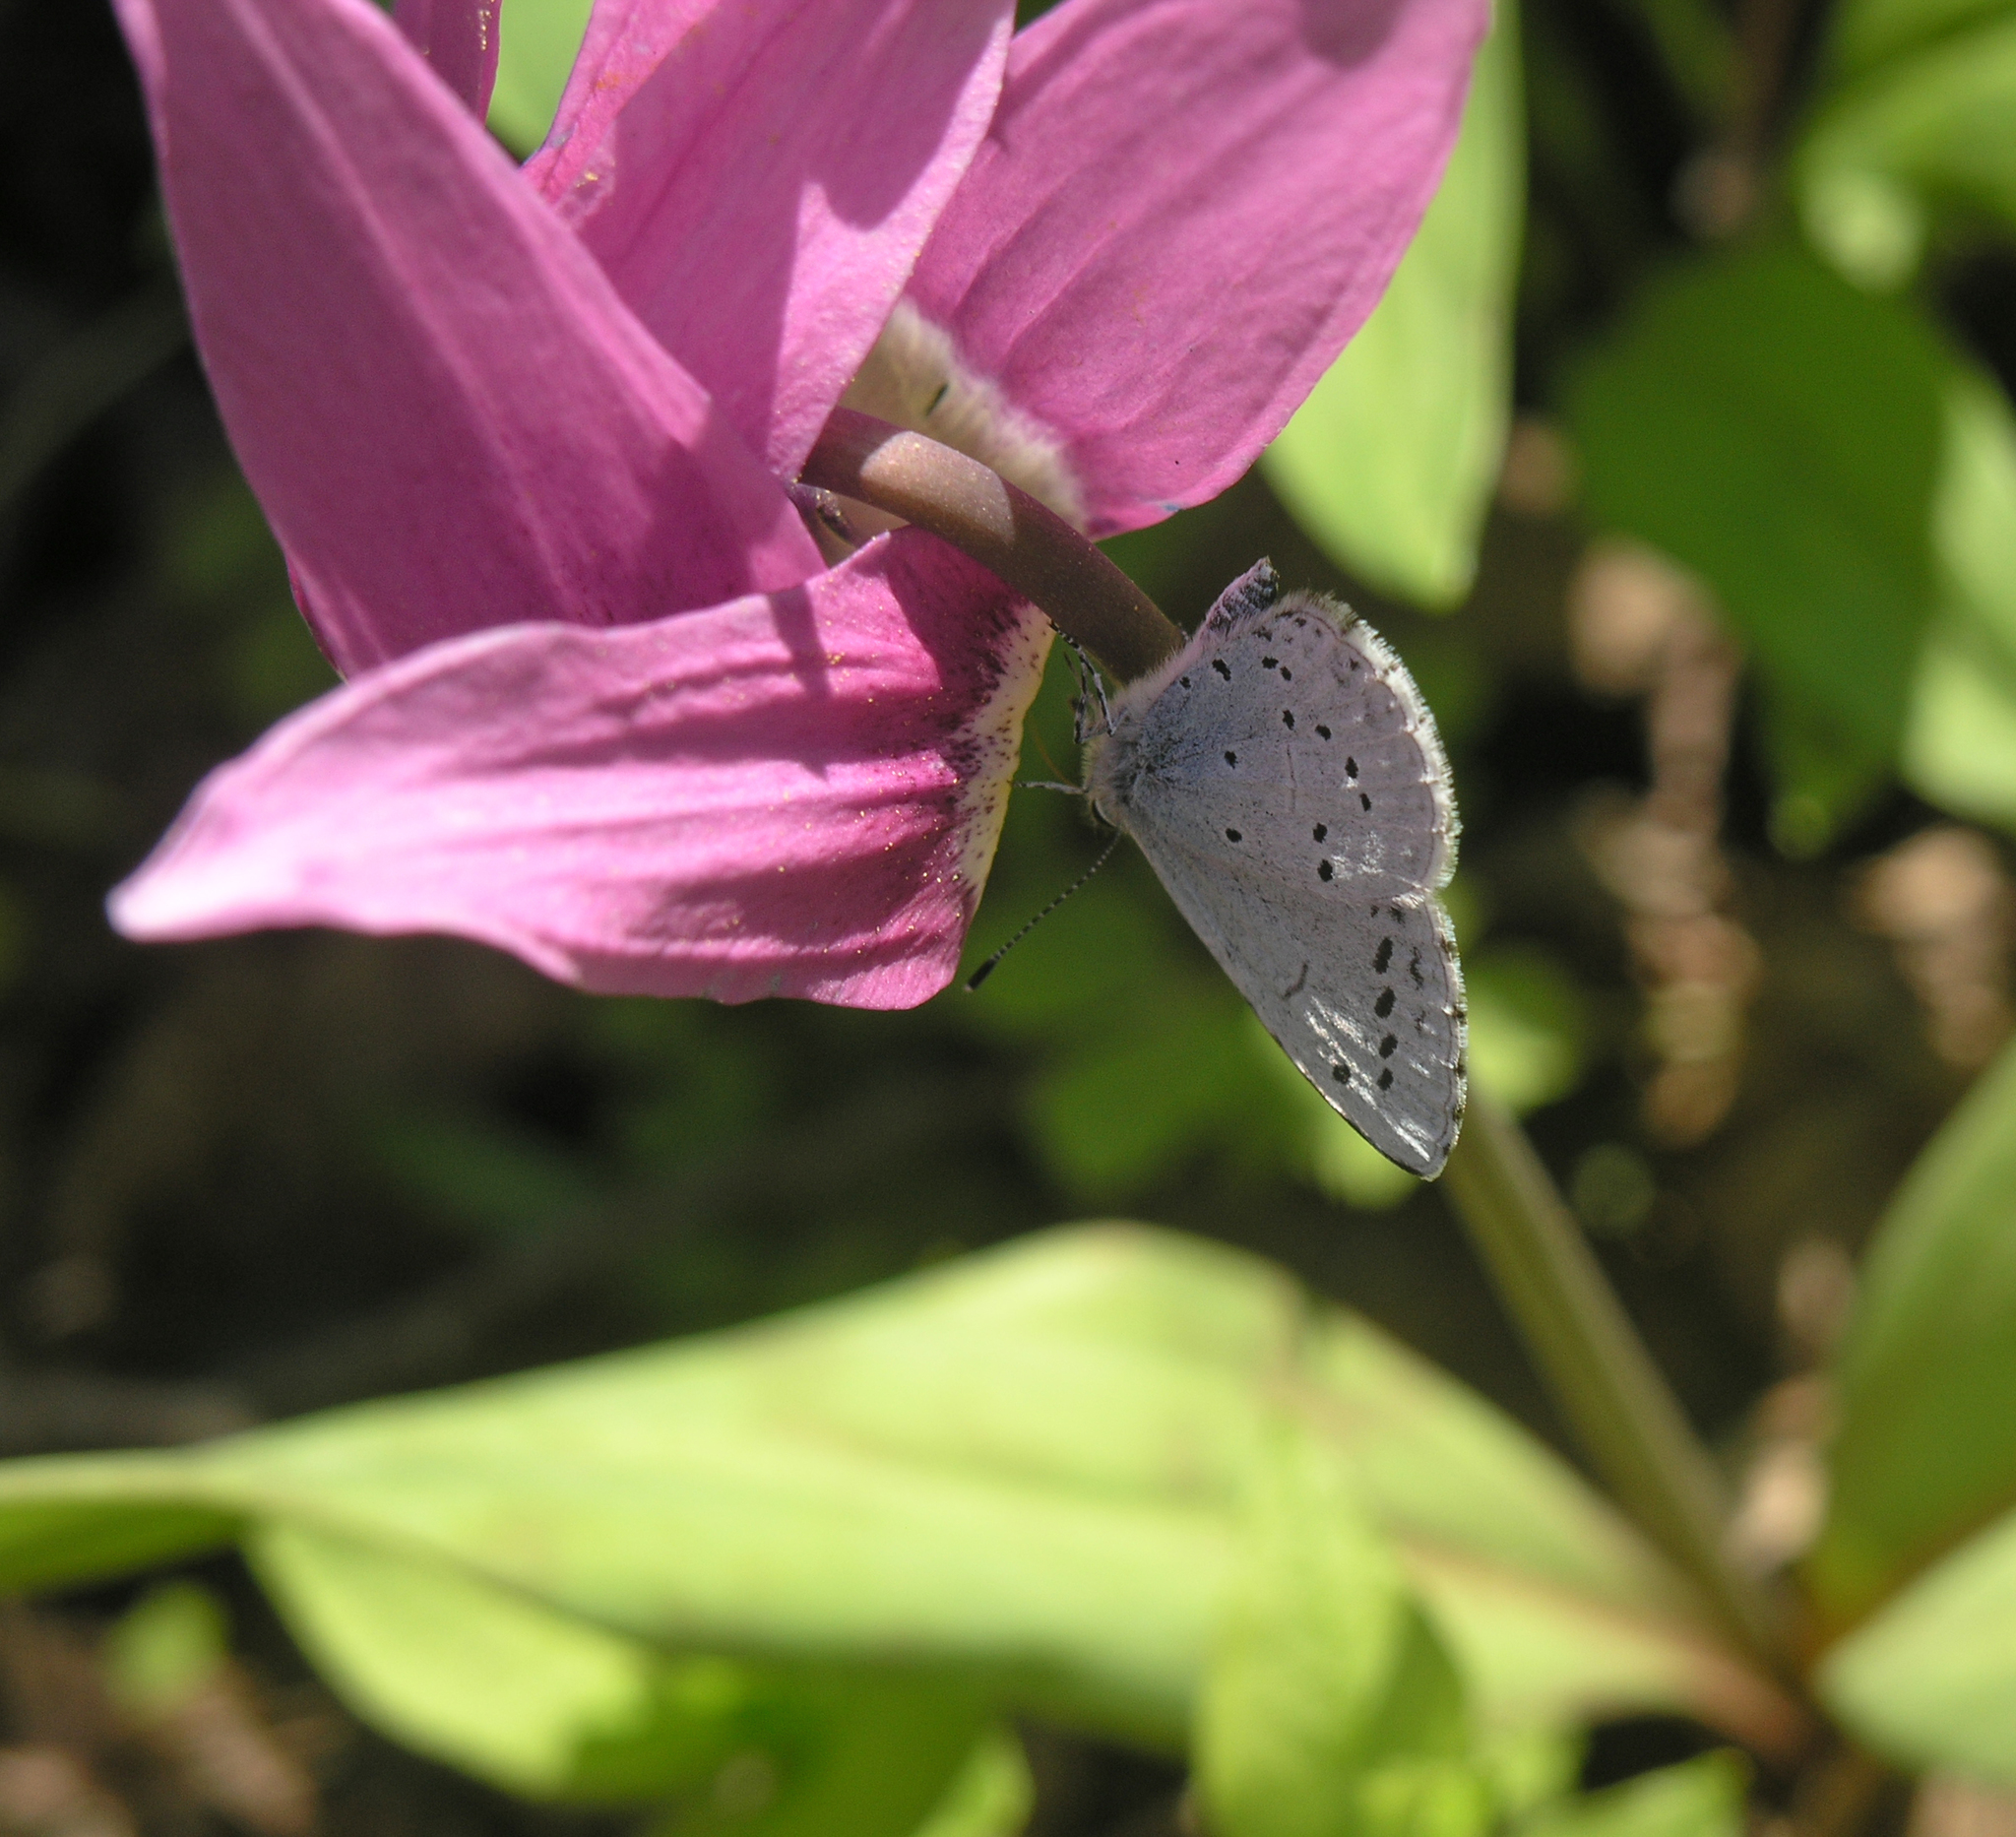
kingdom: Animalia
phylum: Arthropoda
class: Insecta
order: Lepidoptera
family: Lycaenidae
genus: Celastrina
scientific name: Celastrina argiolus
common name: Holly blue
